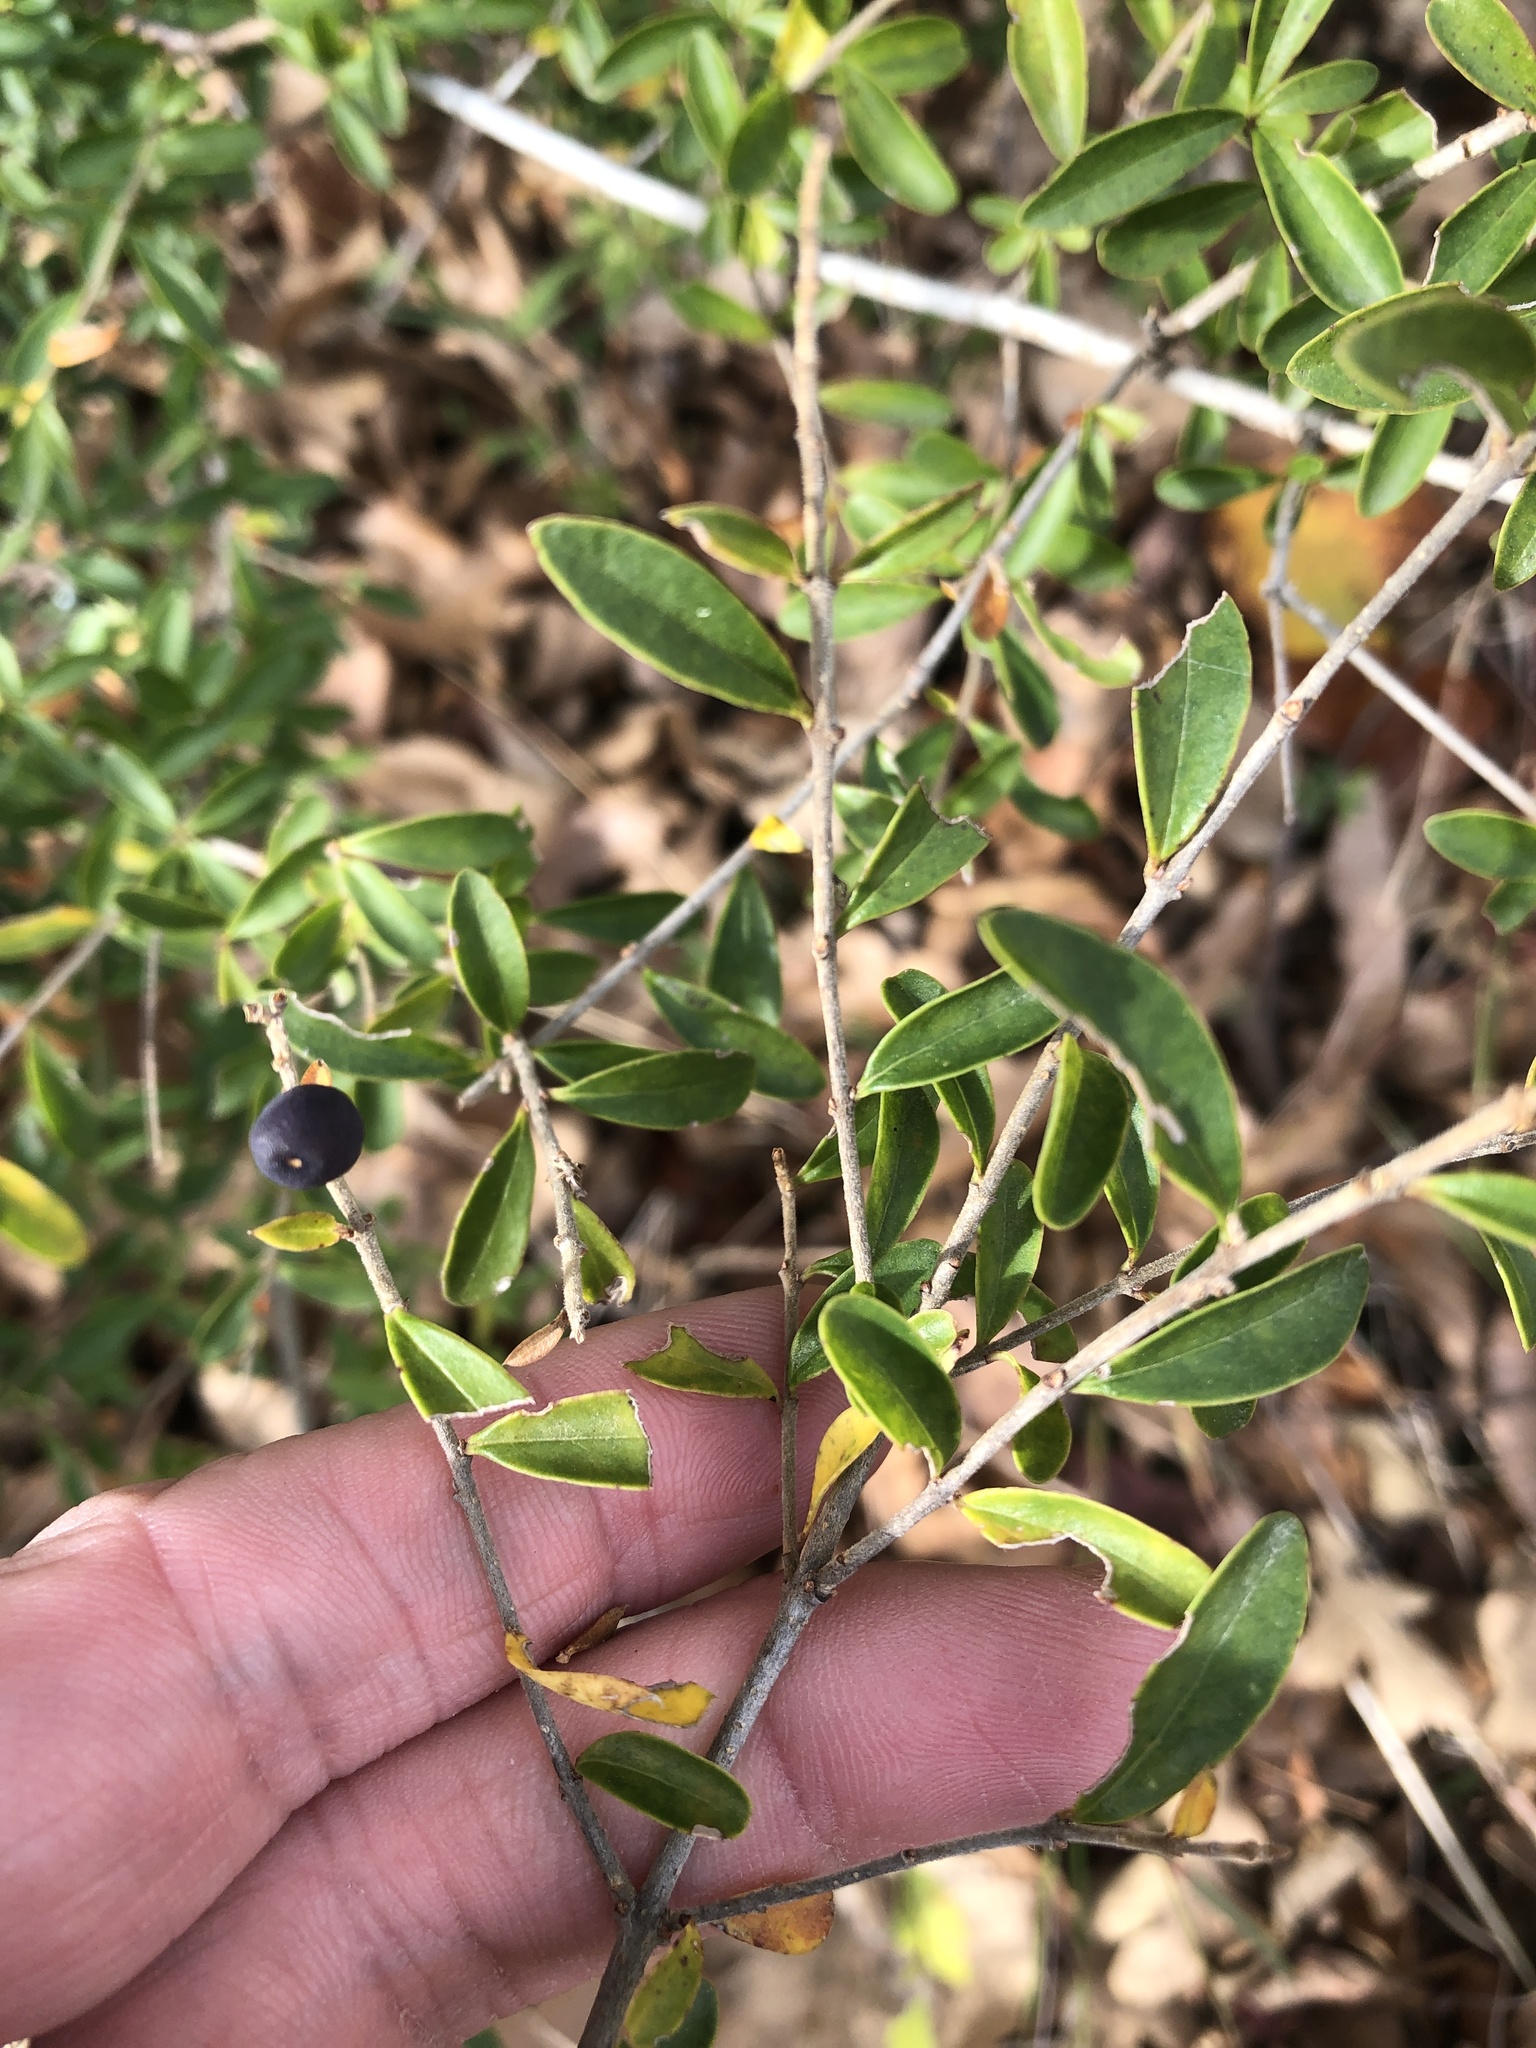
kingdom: Plantae
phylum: Tracheophyta
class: Magnoliopsida
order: Lamiales
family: Oleaceae
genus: Ligustrum
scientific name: Ligustrum quihoui
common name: Waxyleaf privet
